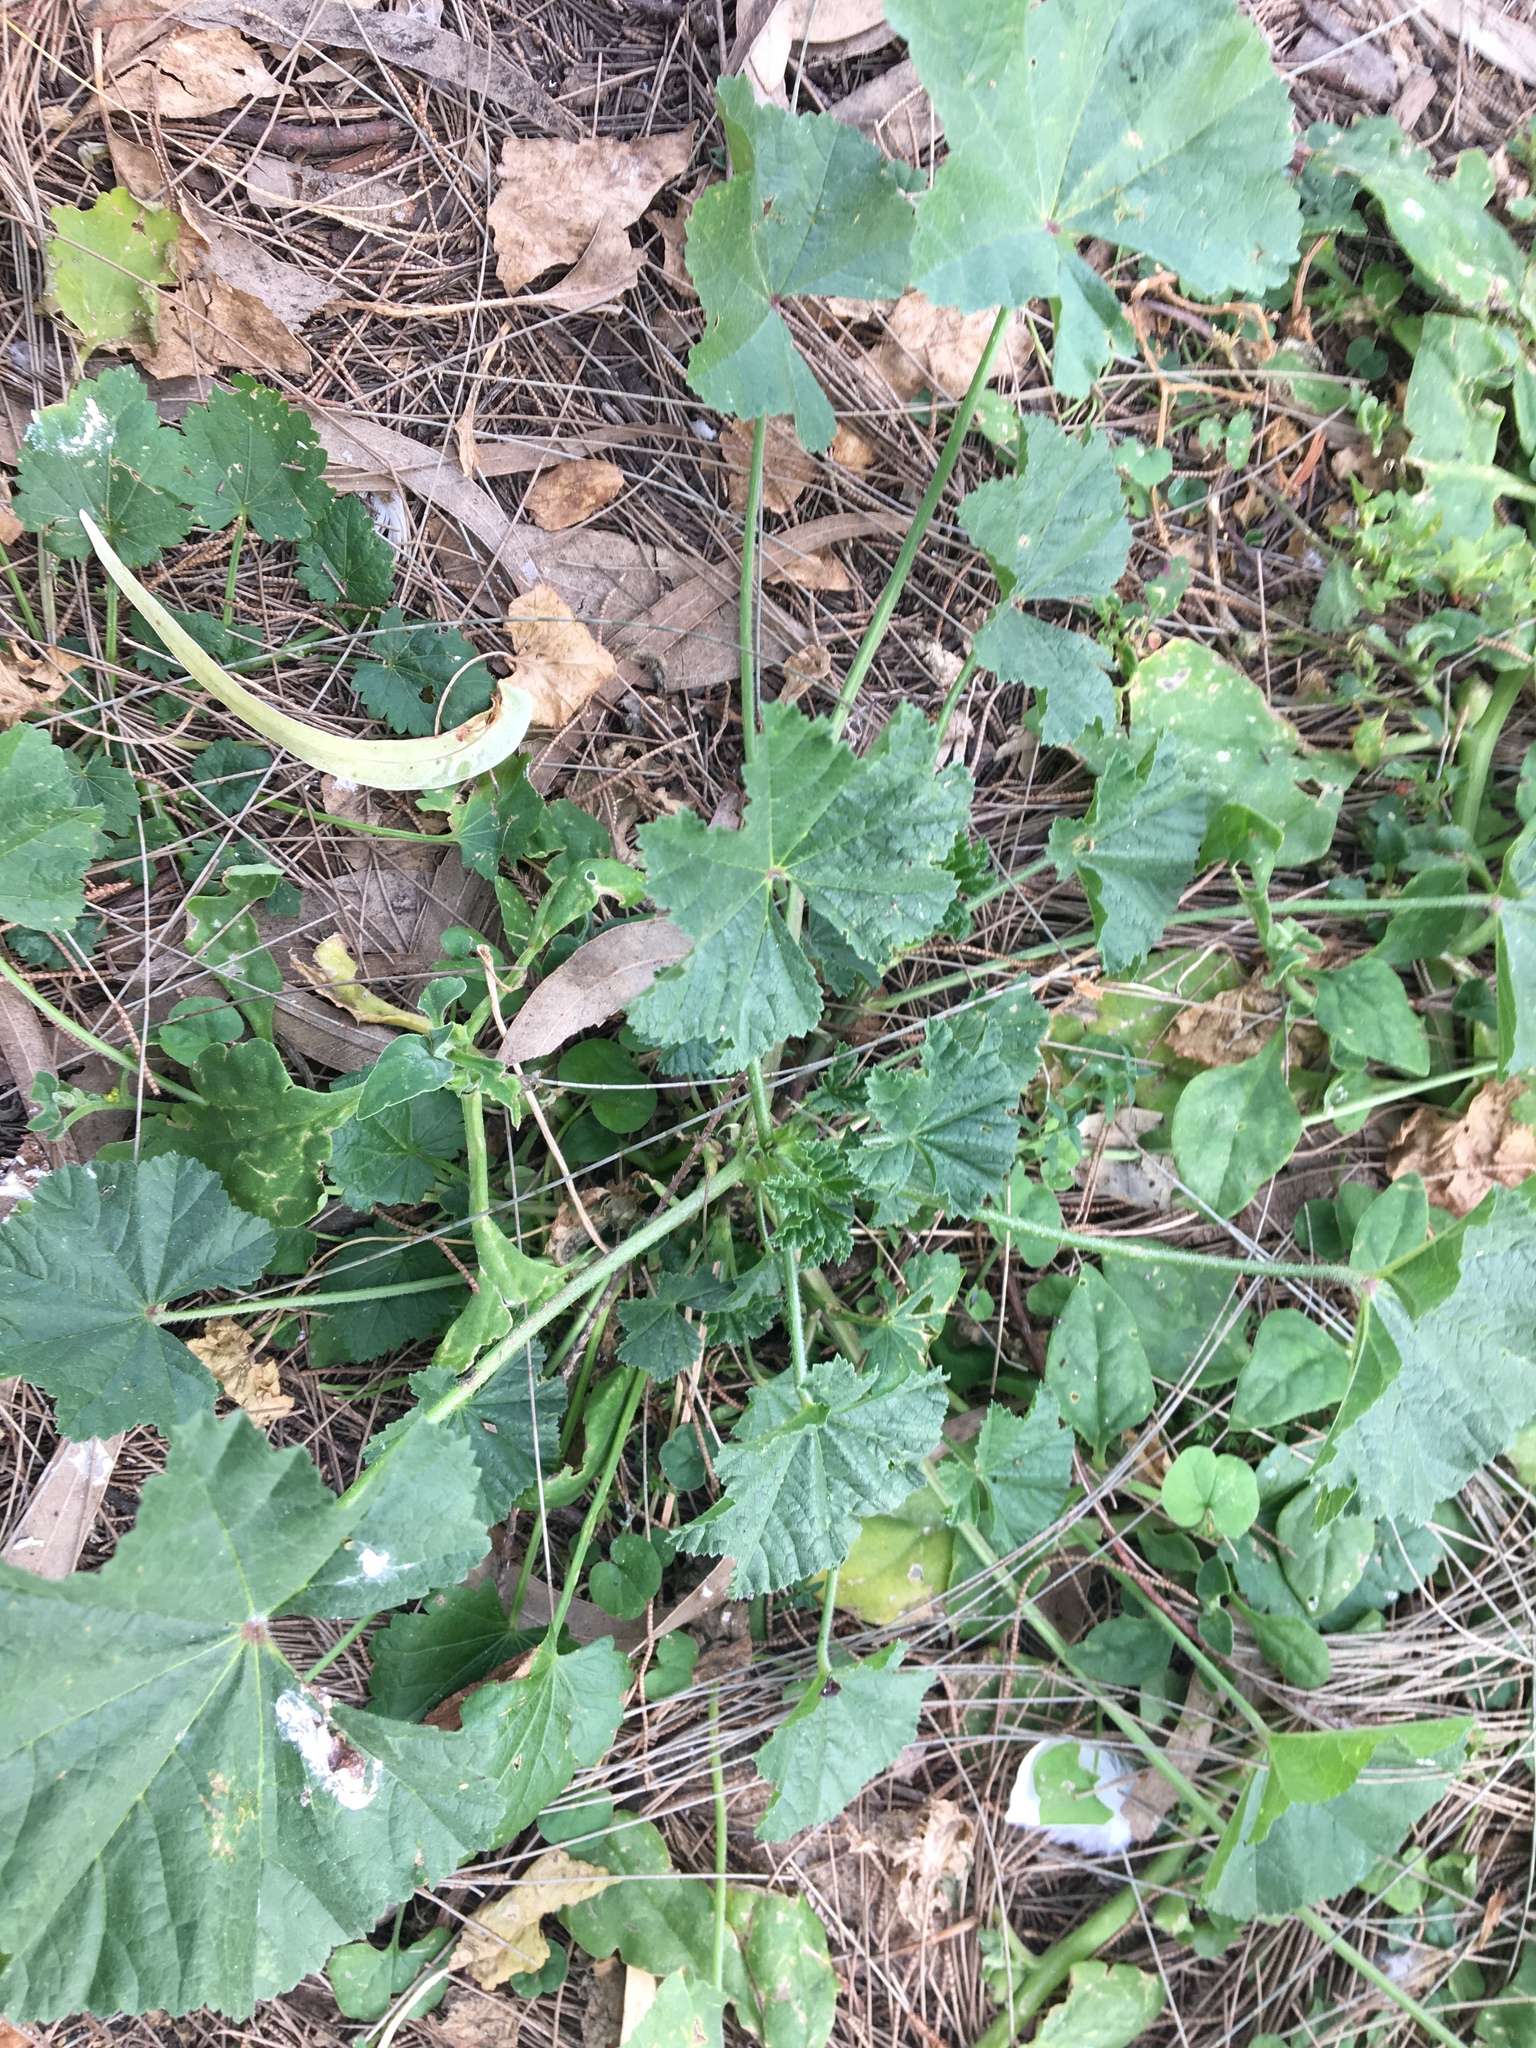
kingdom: Plantae
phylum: Tracheophyta
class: Magnoliopsida
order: Malvales
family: Malvaceae
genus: Malva
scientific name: Malva parviflora
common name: Least mallow
